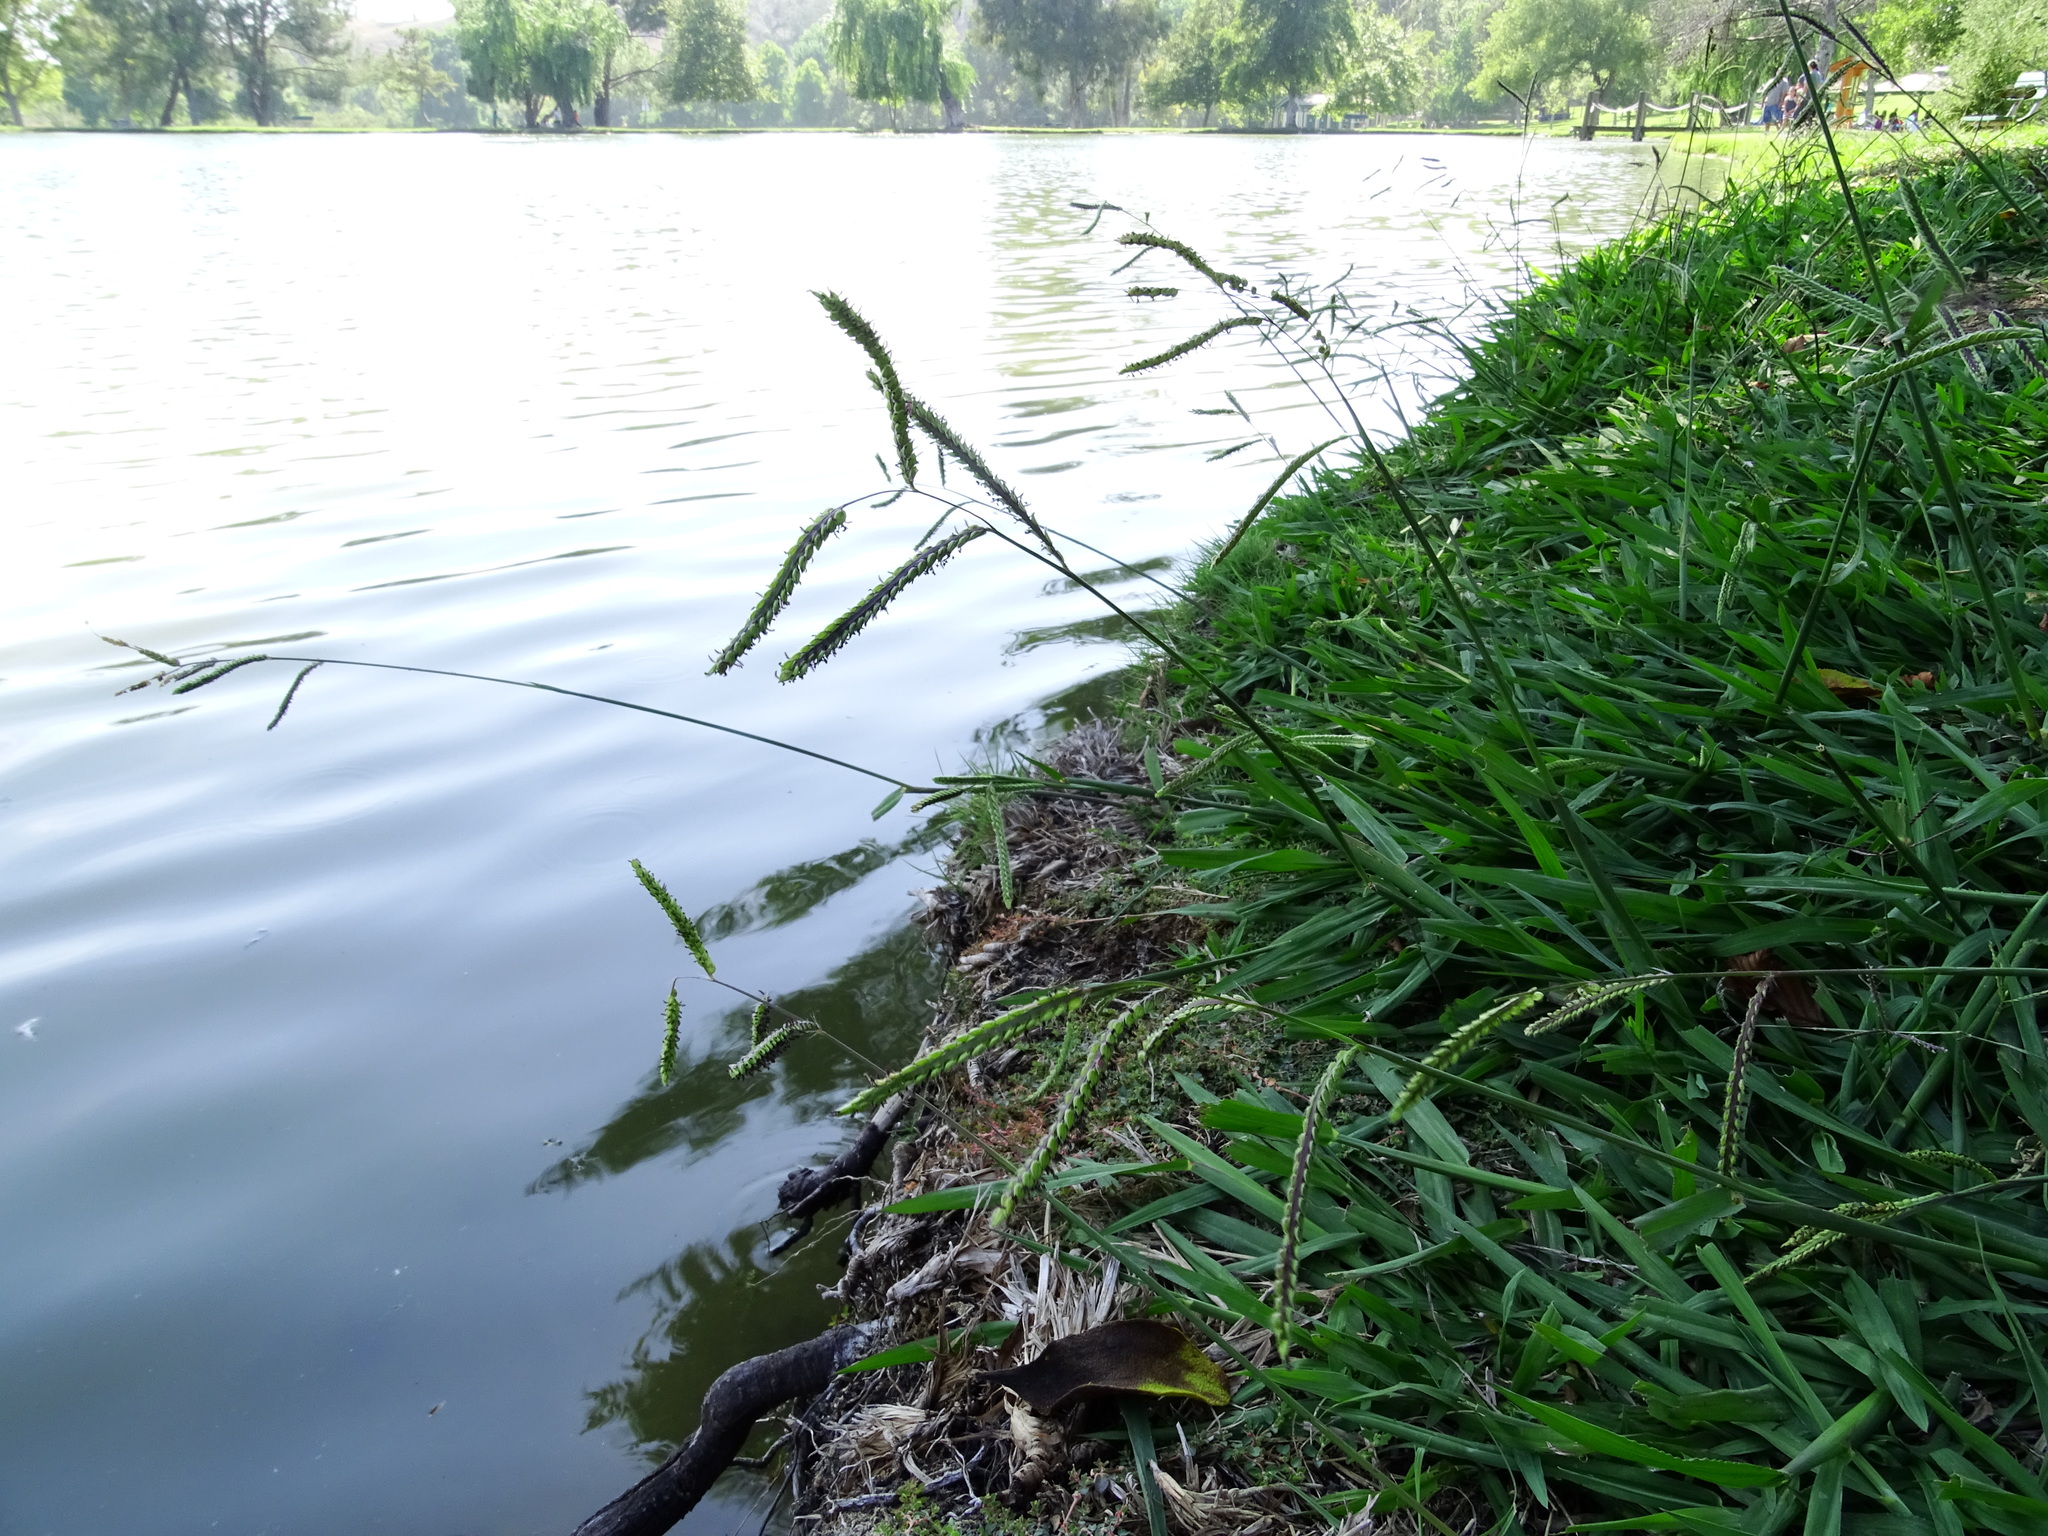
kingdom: Plantae
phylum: Tracheophyta
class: Liliopsida
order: Poales
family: Poaceae
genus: Paspalum
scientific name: Paspalum dilatatum
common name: Dallisgrass
